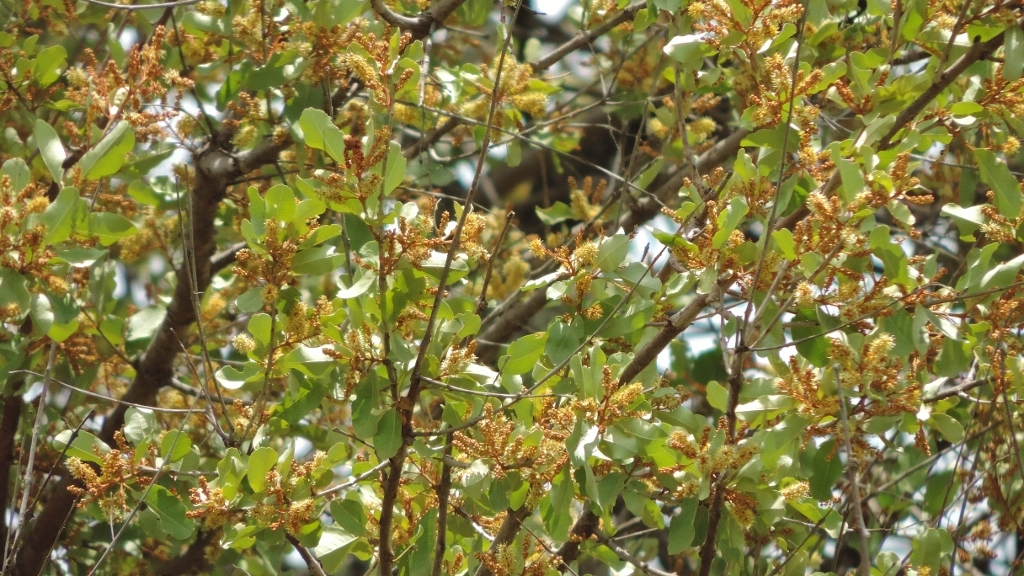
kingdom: Plantae
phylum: Tracheophyta
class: Magnoliopsida
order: Myrtales
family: Combretaceae
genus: Combretum
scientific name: Combretum imberbe
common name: Leadwood
